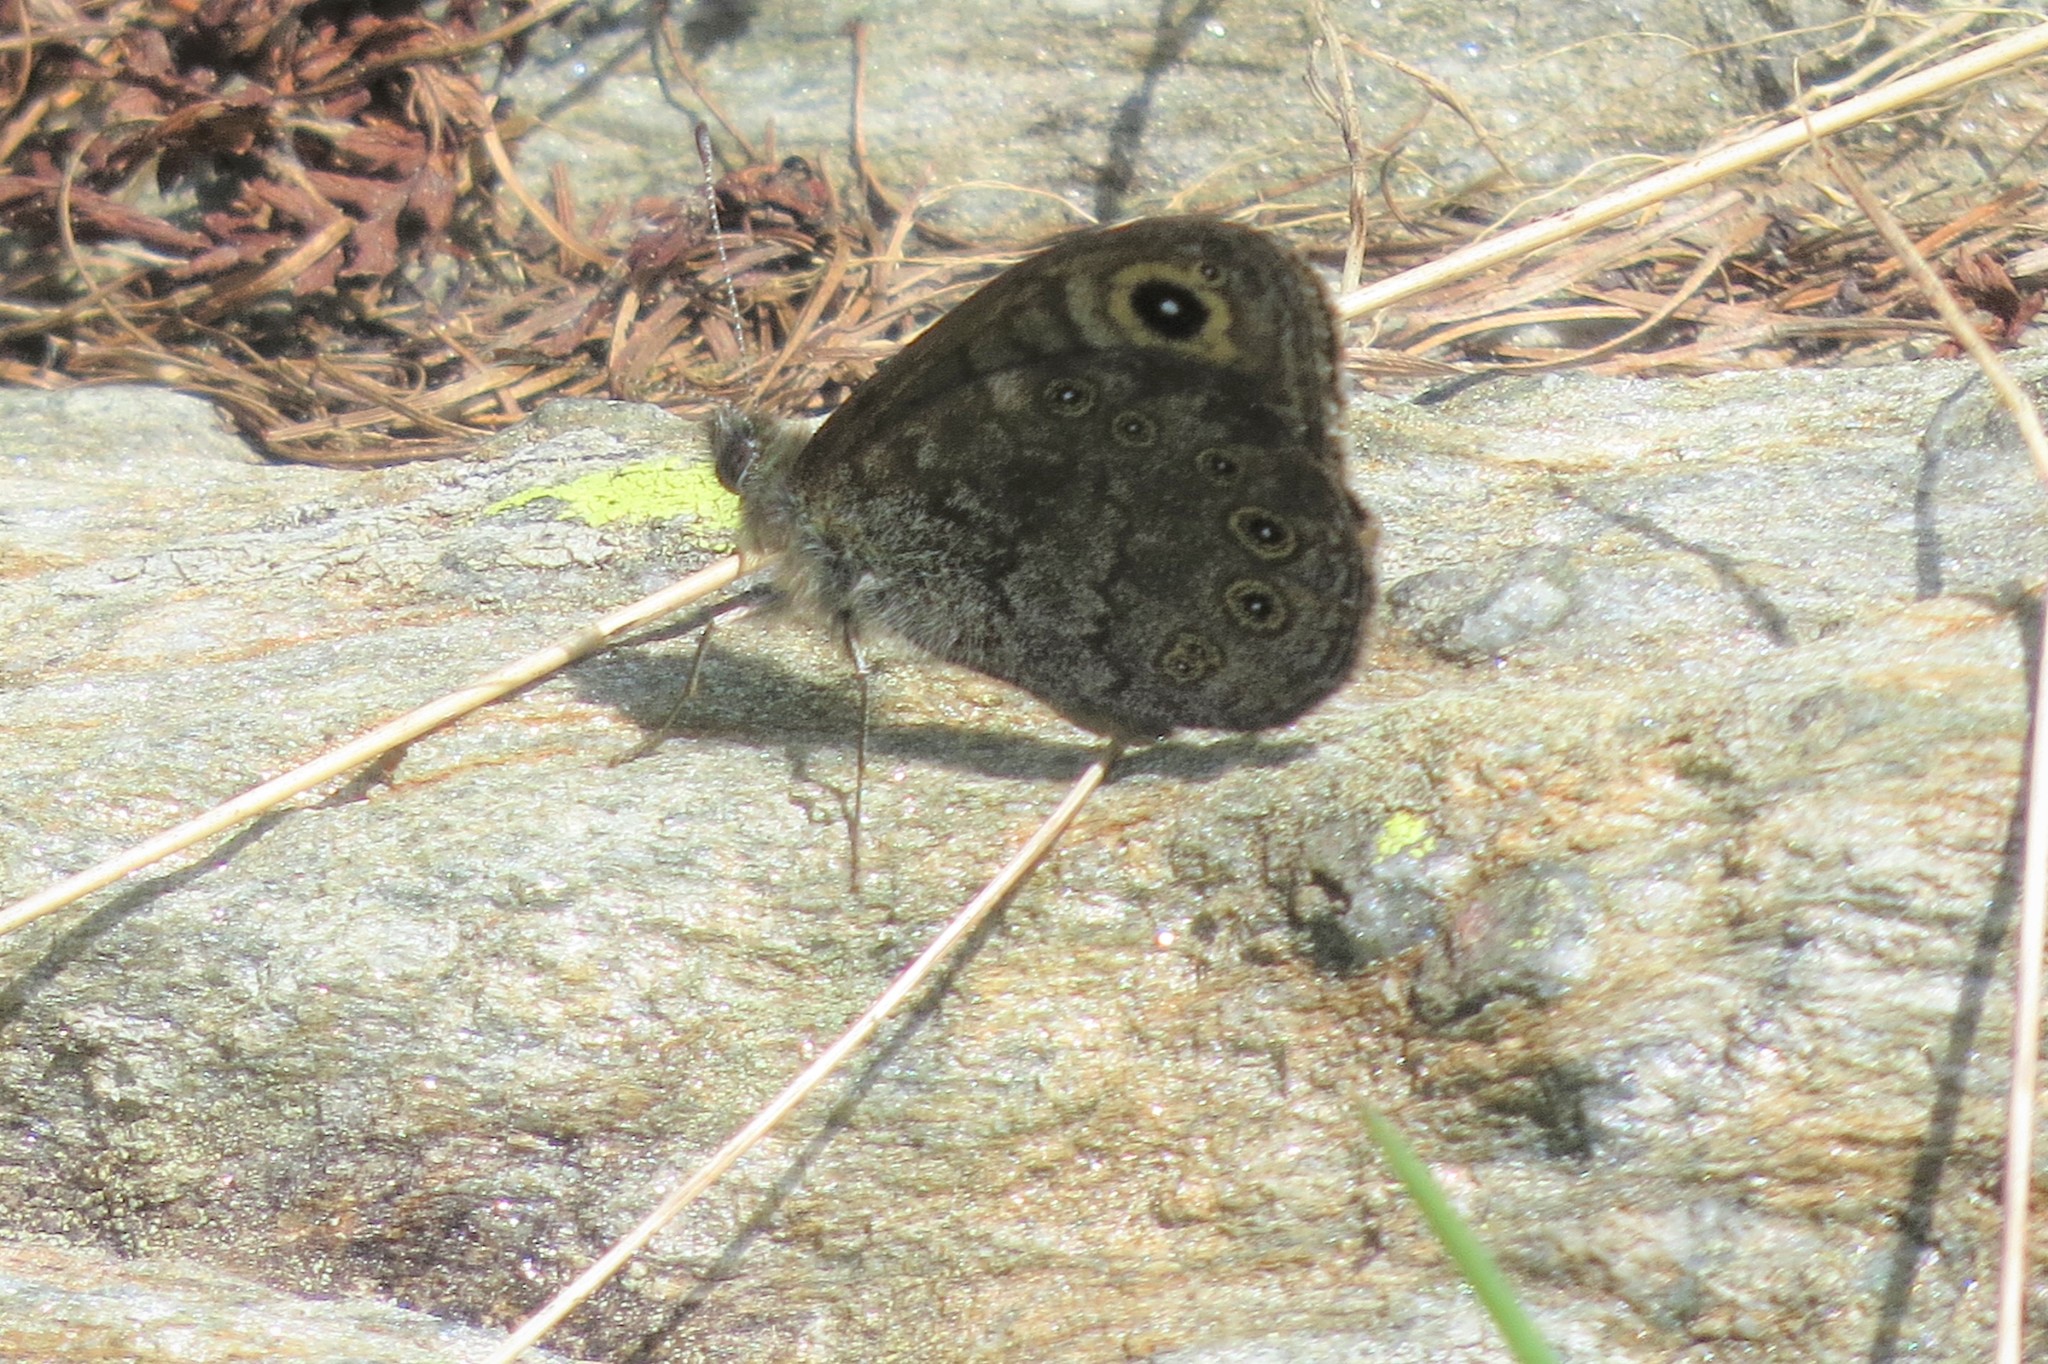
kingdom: Animalia
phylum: Arthropoda
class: Insecta
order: Lepidoptera
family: Nymphalidae
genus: Pararge
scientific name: Pararge petropolitana
